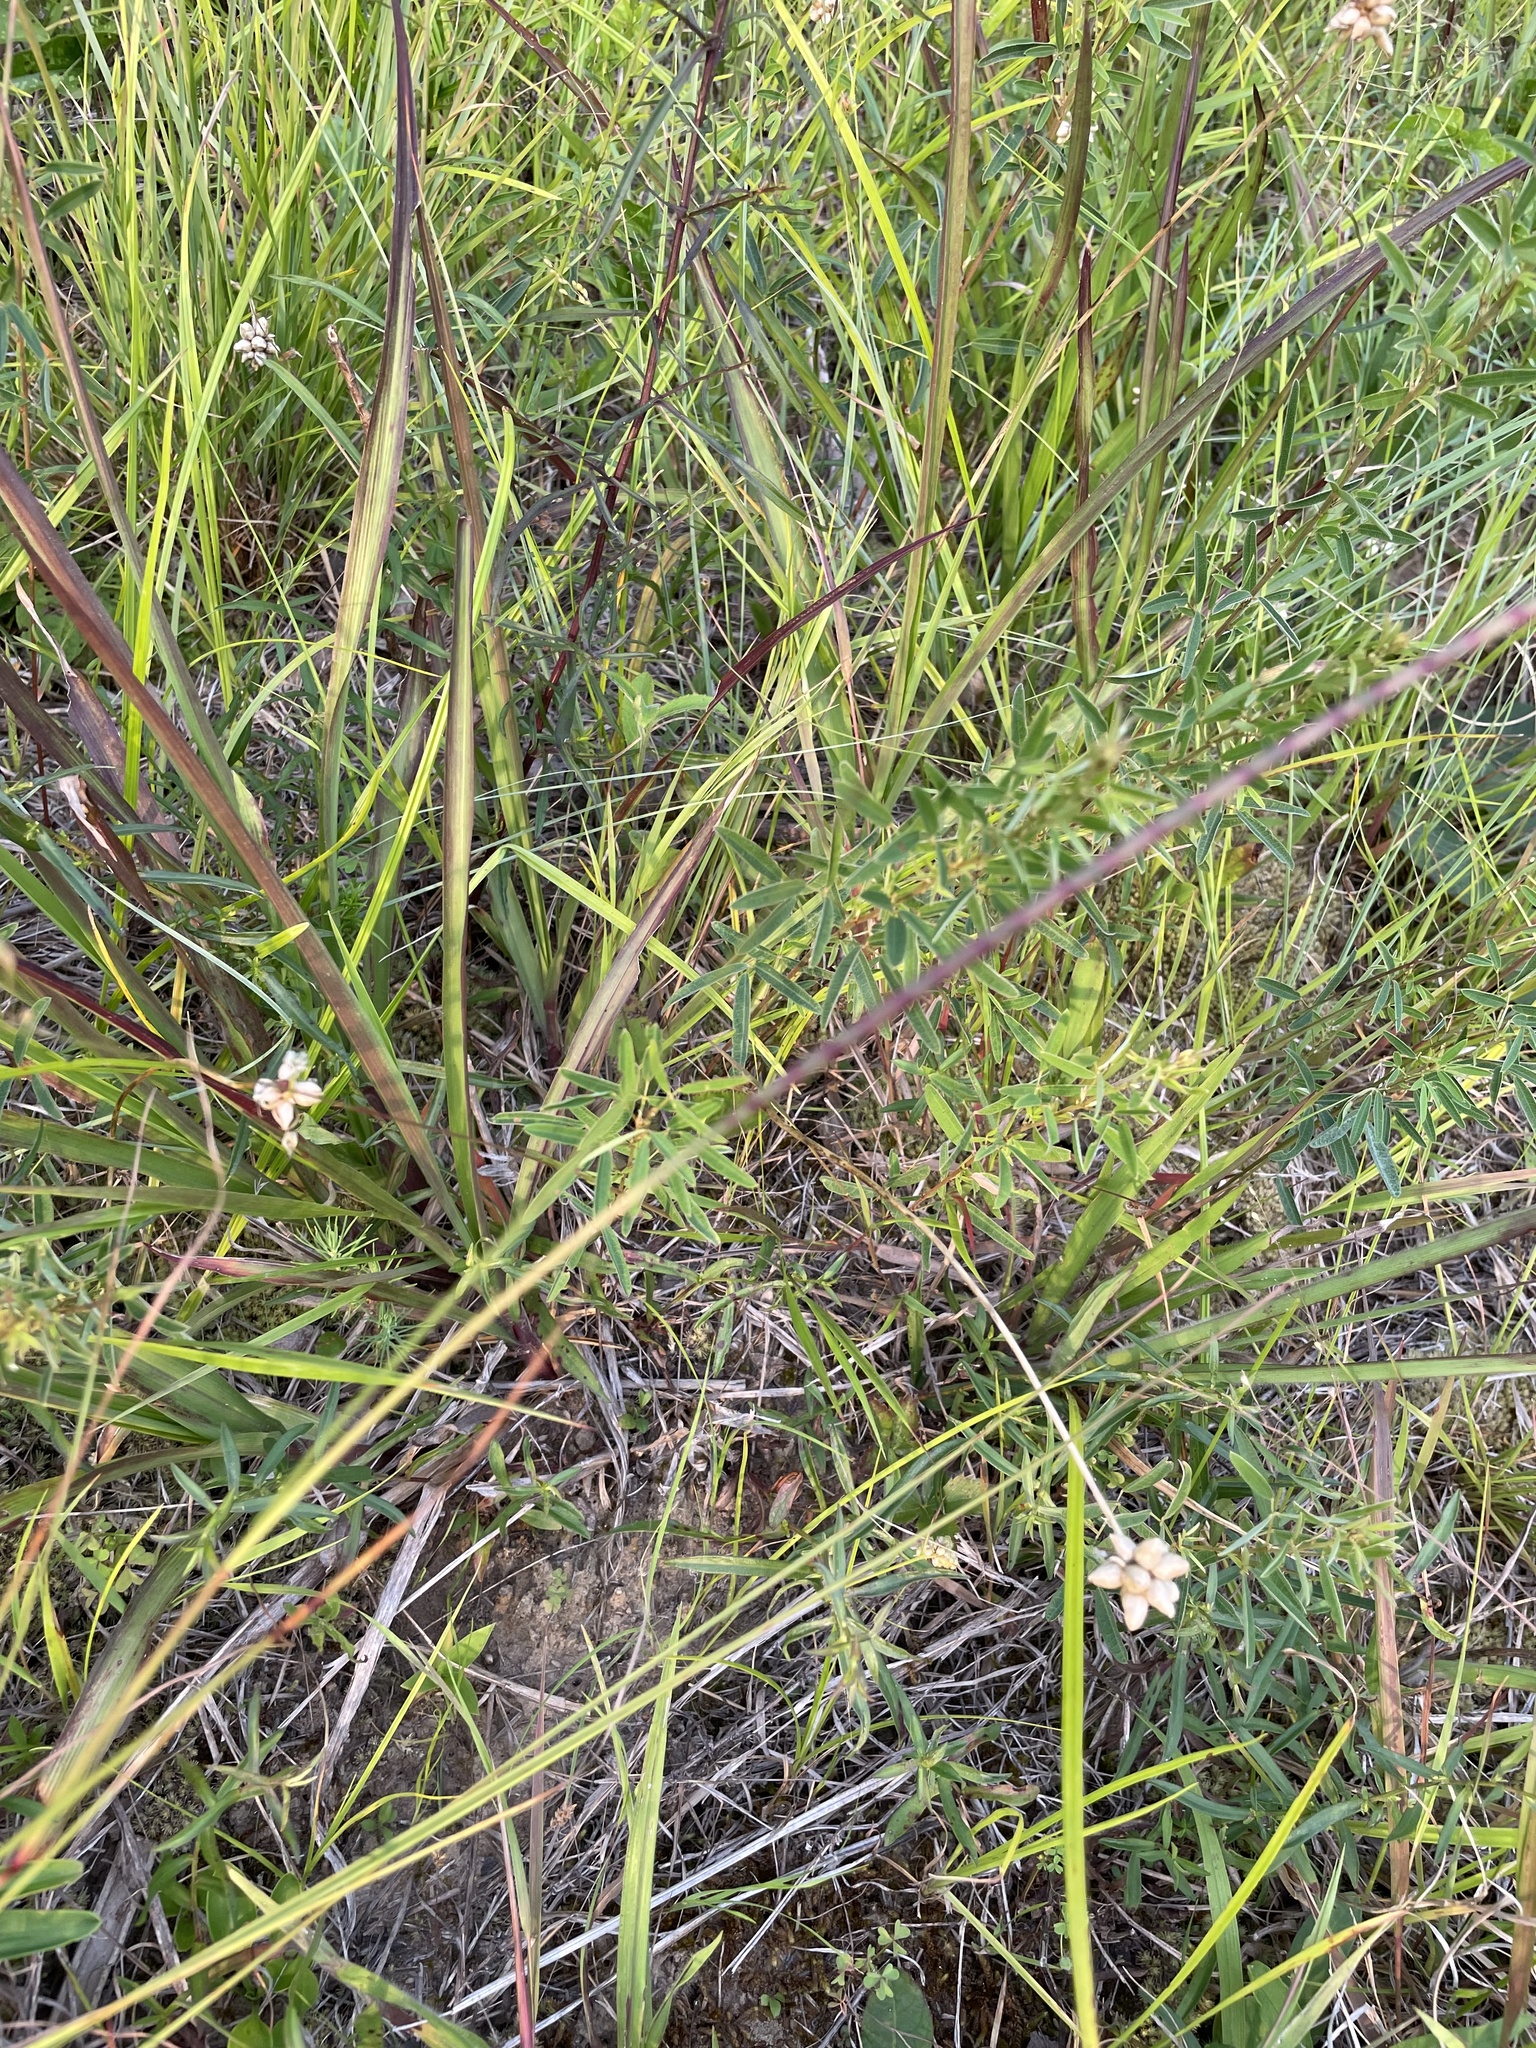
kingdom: Plantae
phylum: Tracheophyta
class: Liliopsida
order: Poales
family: Poaceae
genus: Rottboellia
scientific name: Rottboellia campestris
